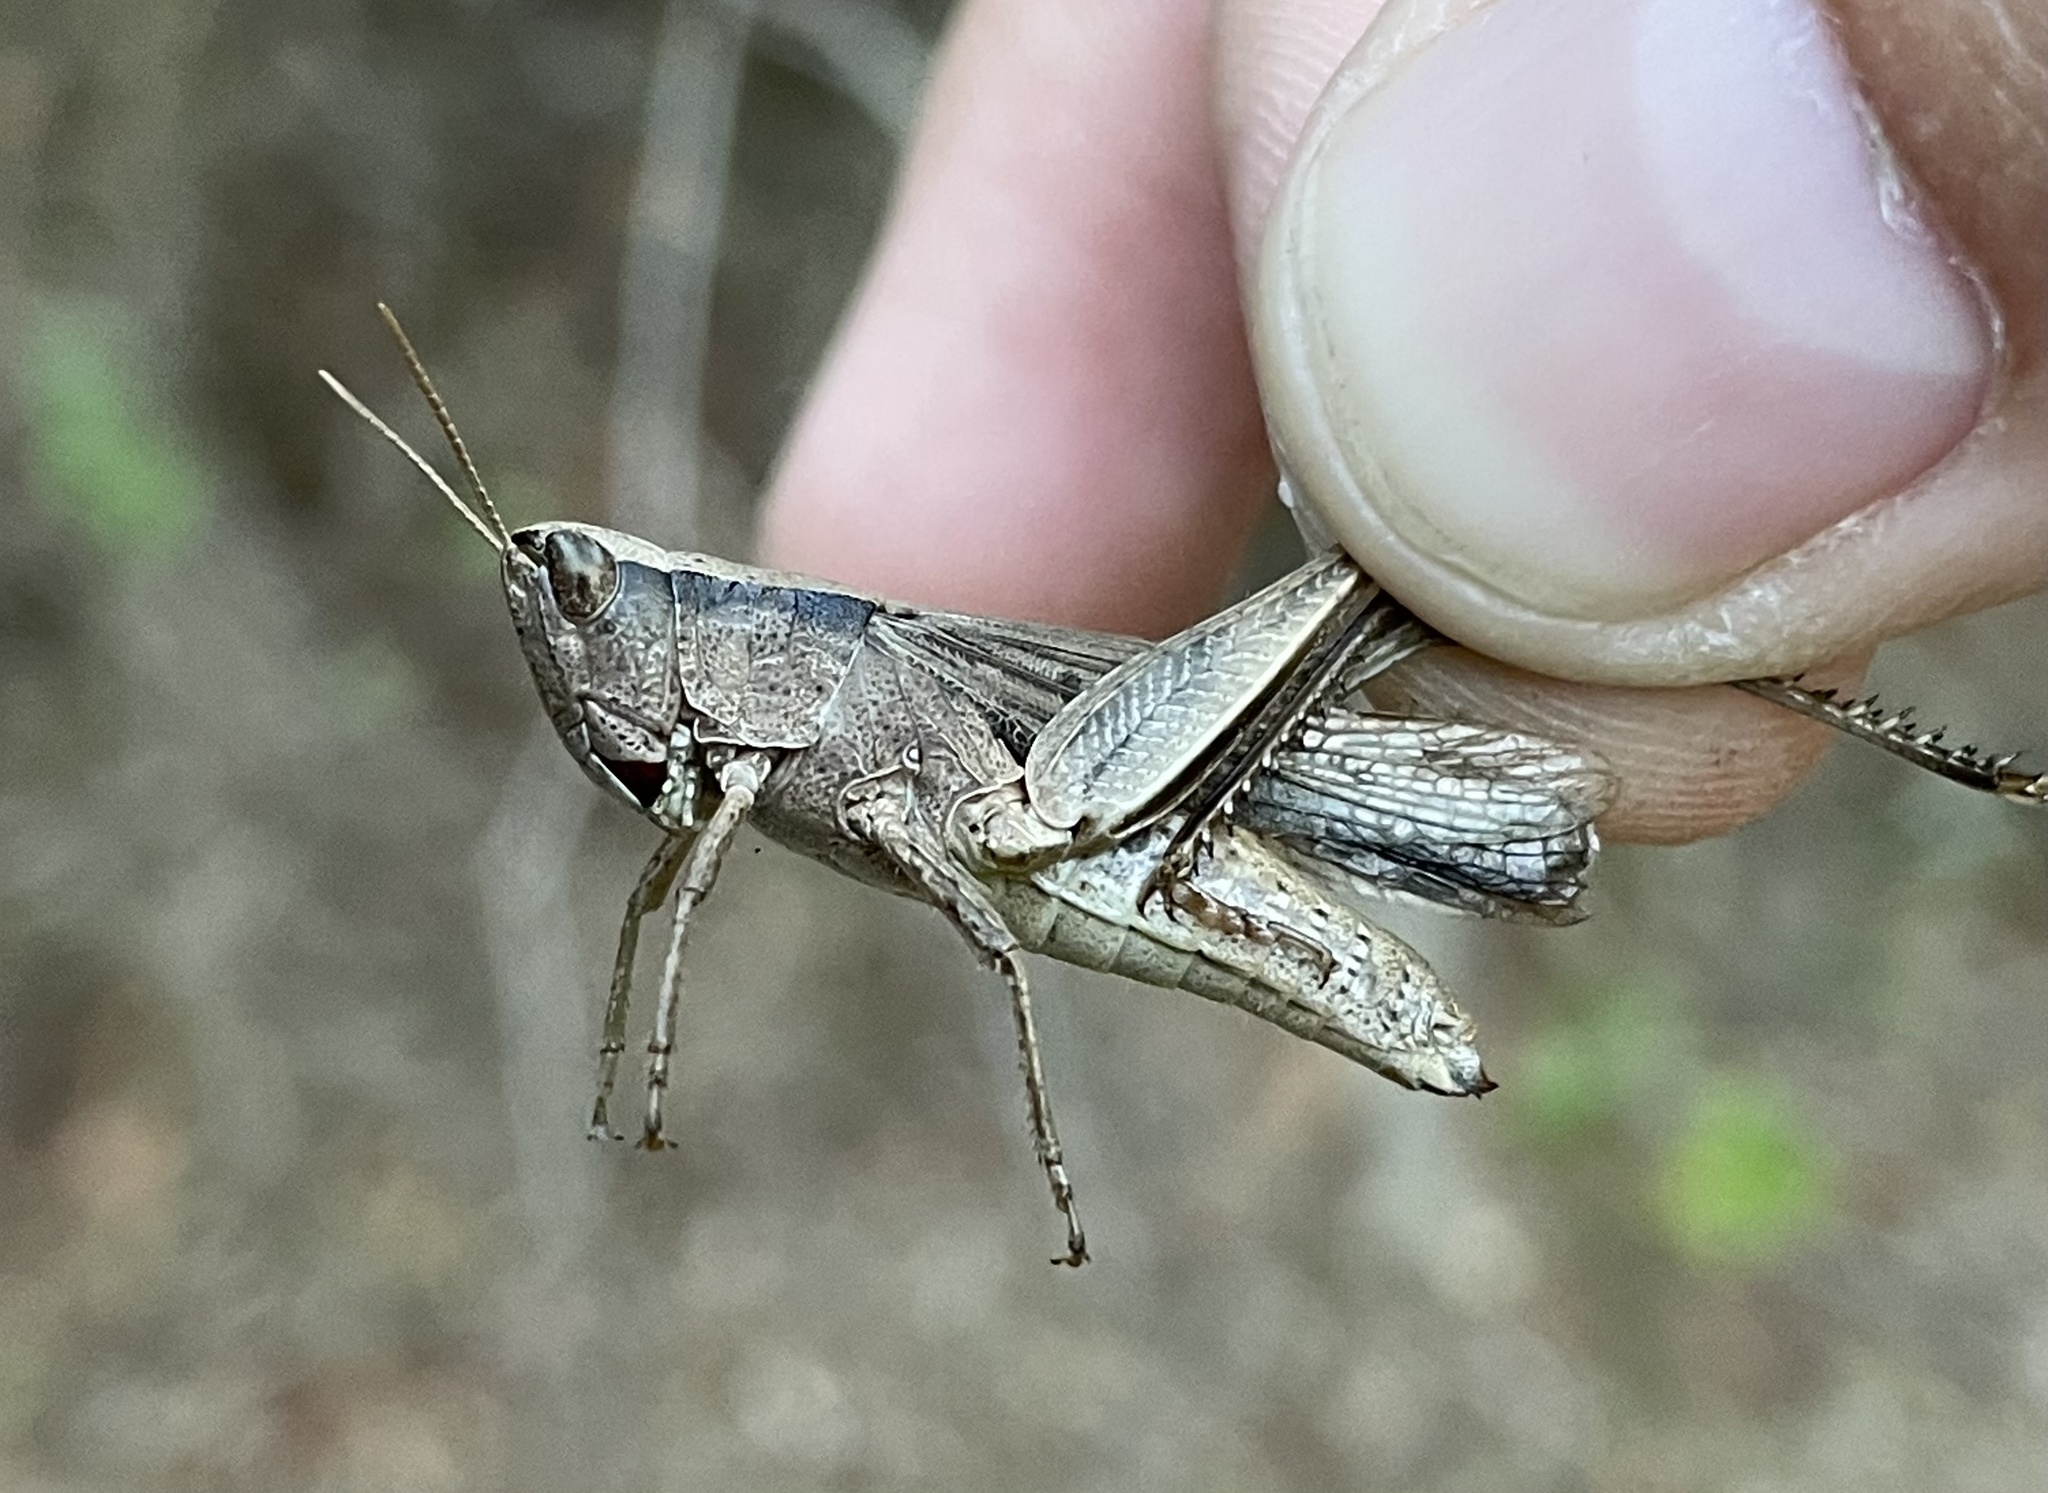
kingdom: Animalia
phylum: Arthropoda
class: Insecta
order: Orthoptera
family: Acrididae
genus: Dichromorpha
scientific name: Dichromorpha viridis
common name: Short-winged green grasshopper
